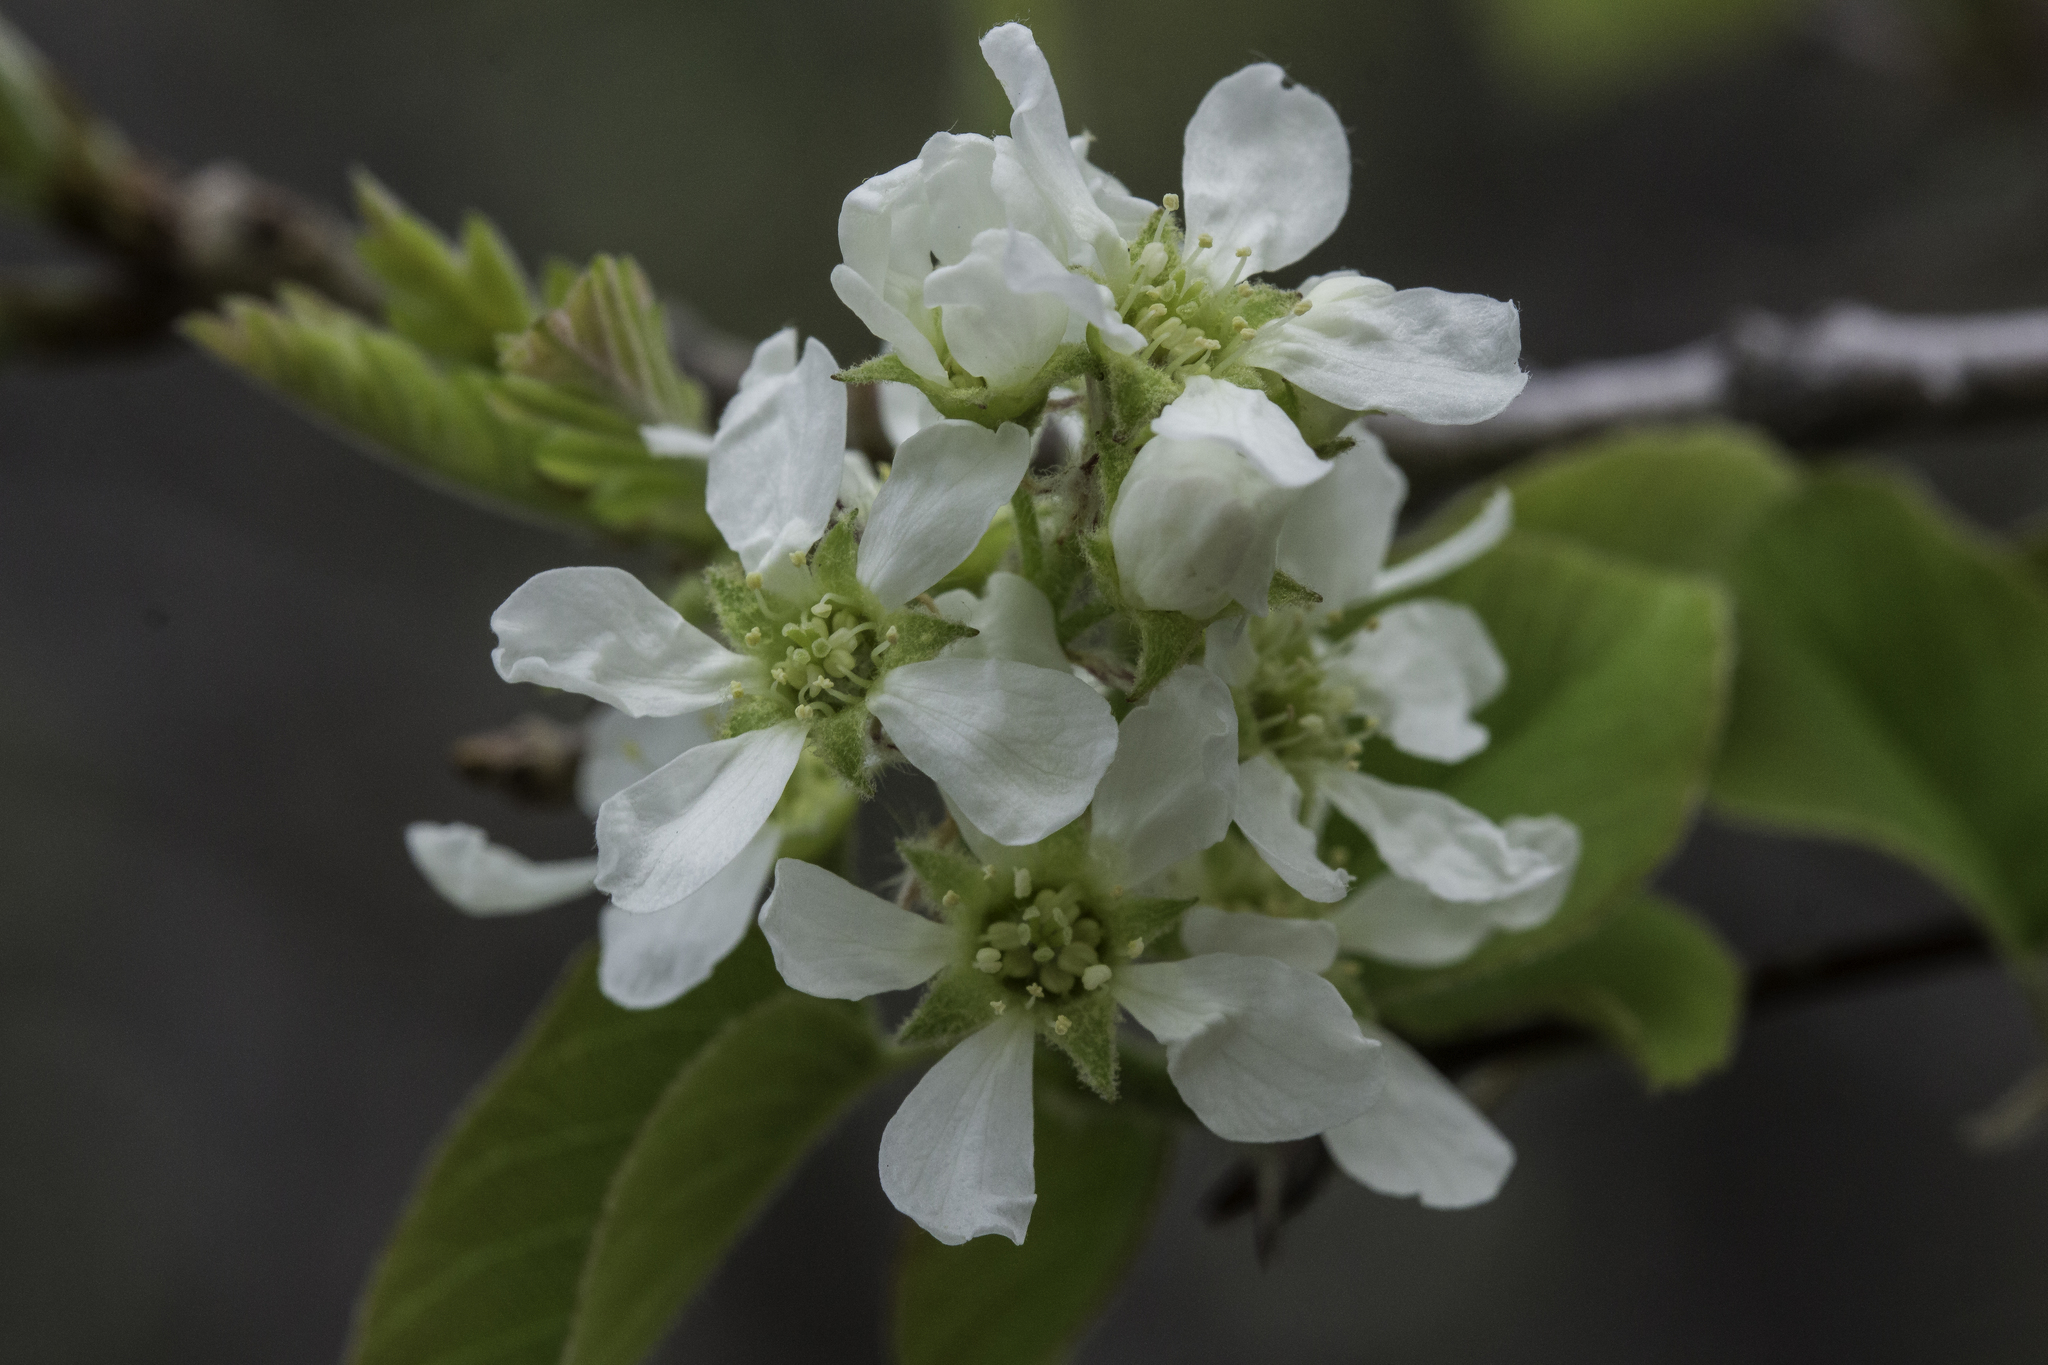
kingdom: Plantae
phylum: Tracheophyta
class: Magnoliopsida
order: Rosales
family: Rosaceae
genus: Amelanchier
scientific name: Amelanchier utahensis
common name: Utah serviceberry
